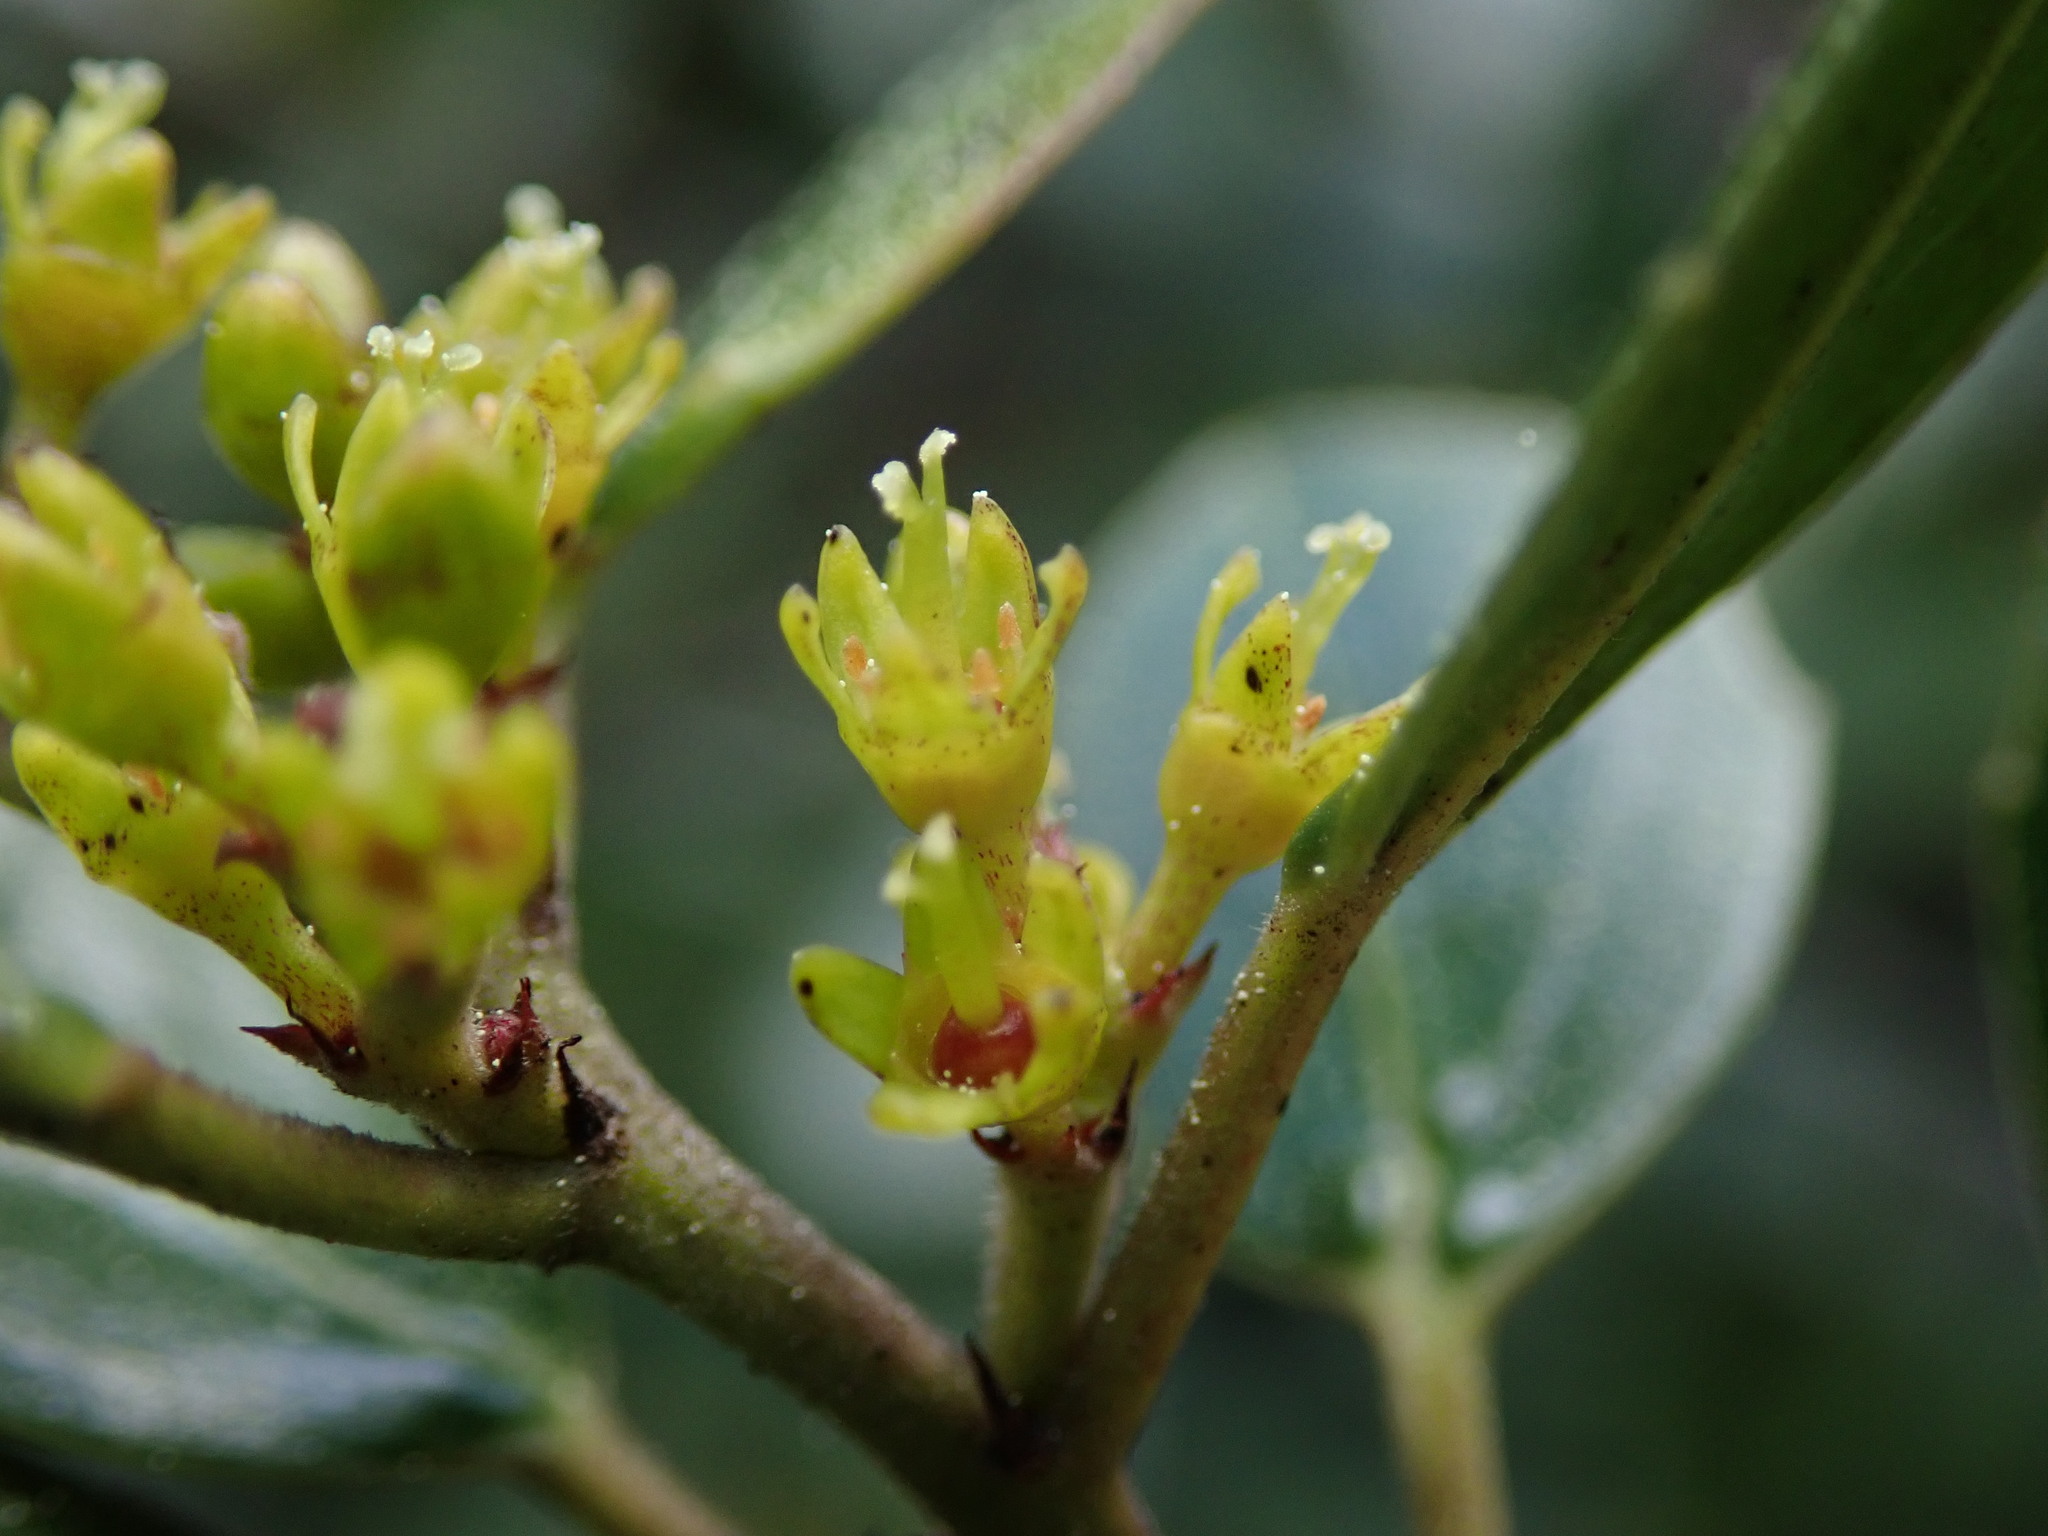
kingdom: Plantae
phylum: Tracheophyta
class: Magnoliopsida
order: Rosales
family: Rhamnaceae
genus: Rhamnus
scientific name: Rhamnus alaternus
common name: Mediterranean buckthorn
